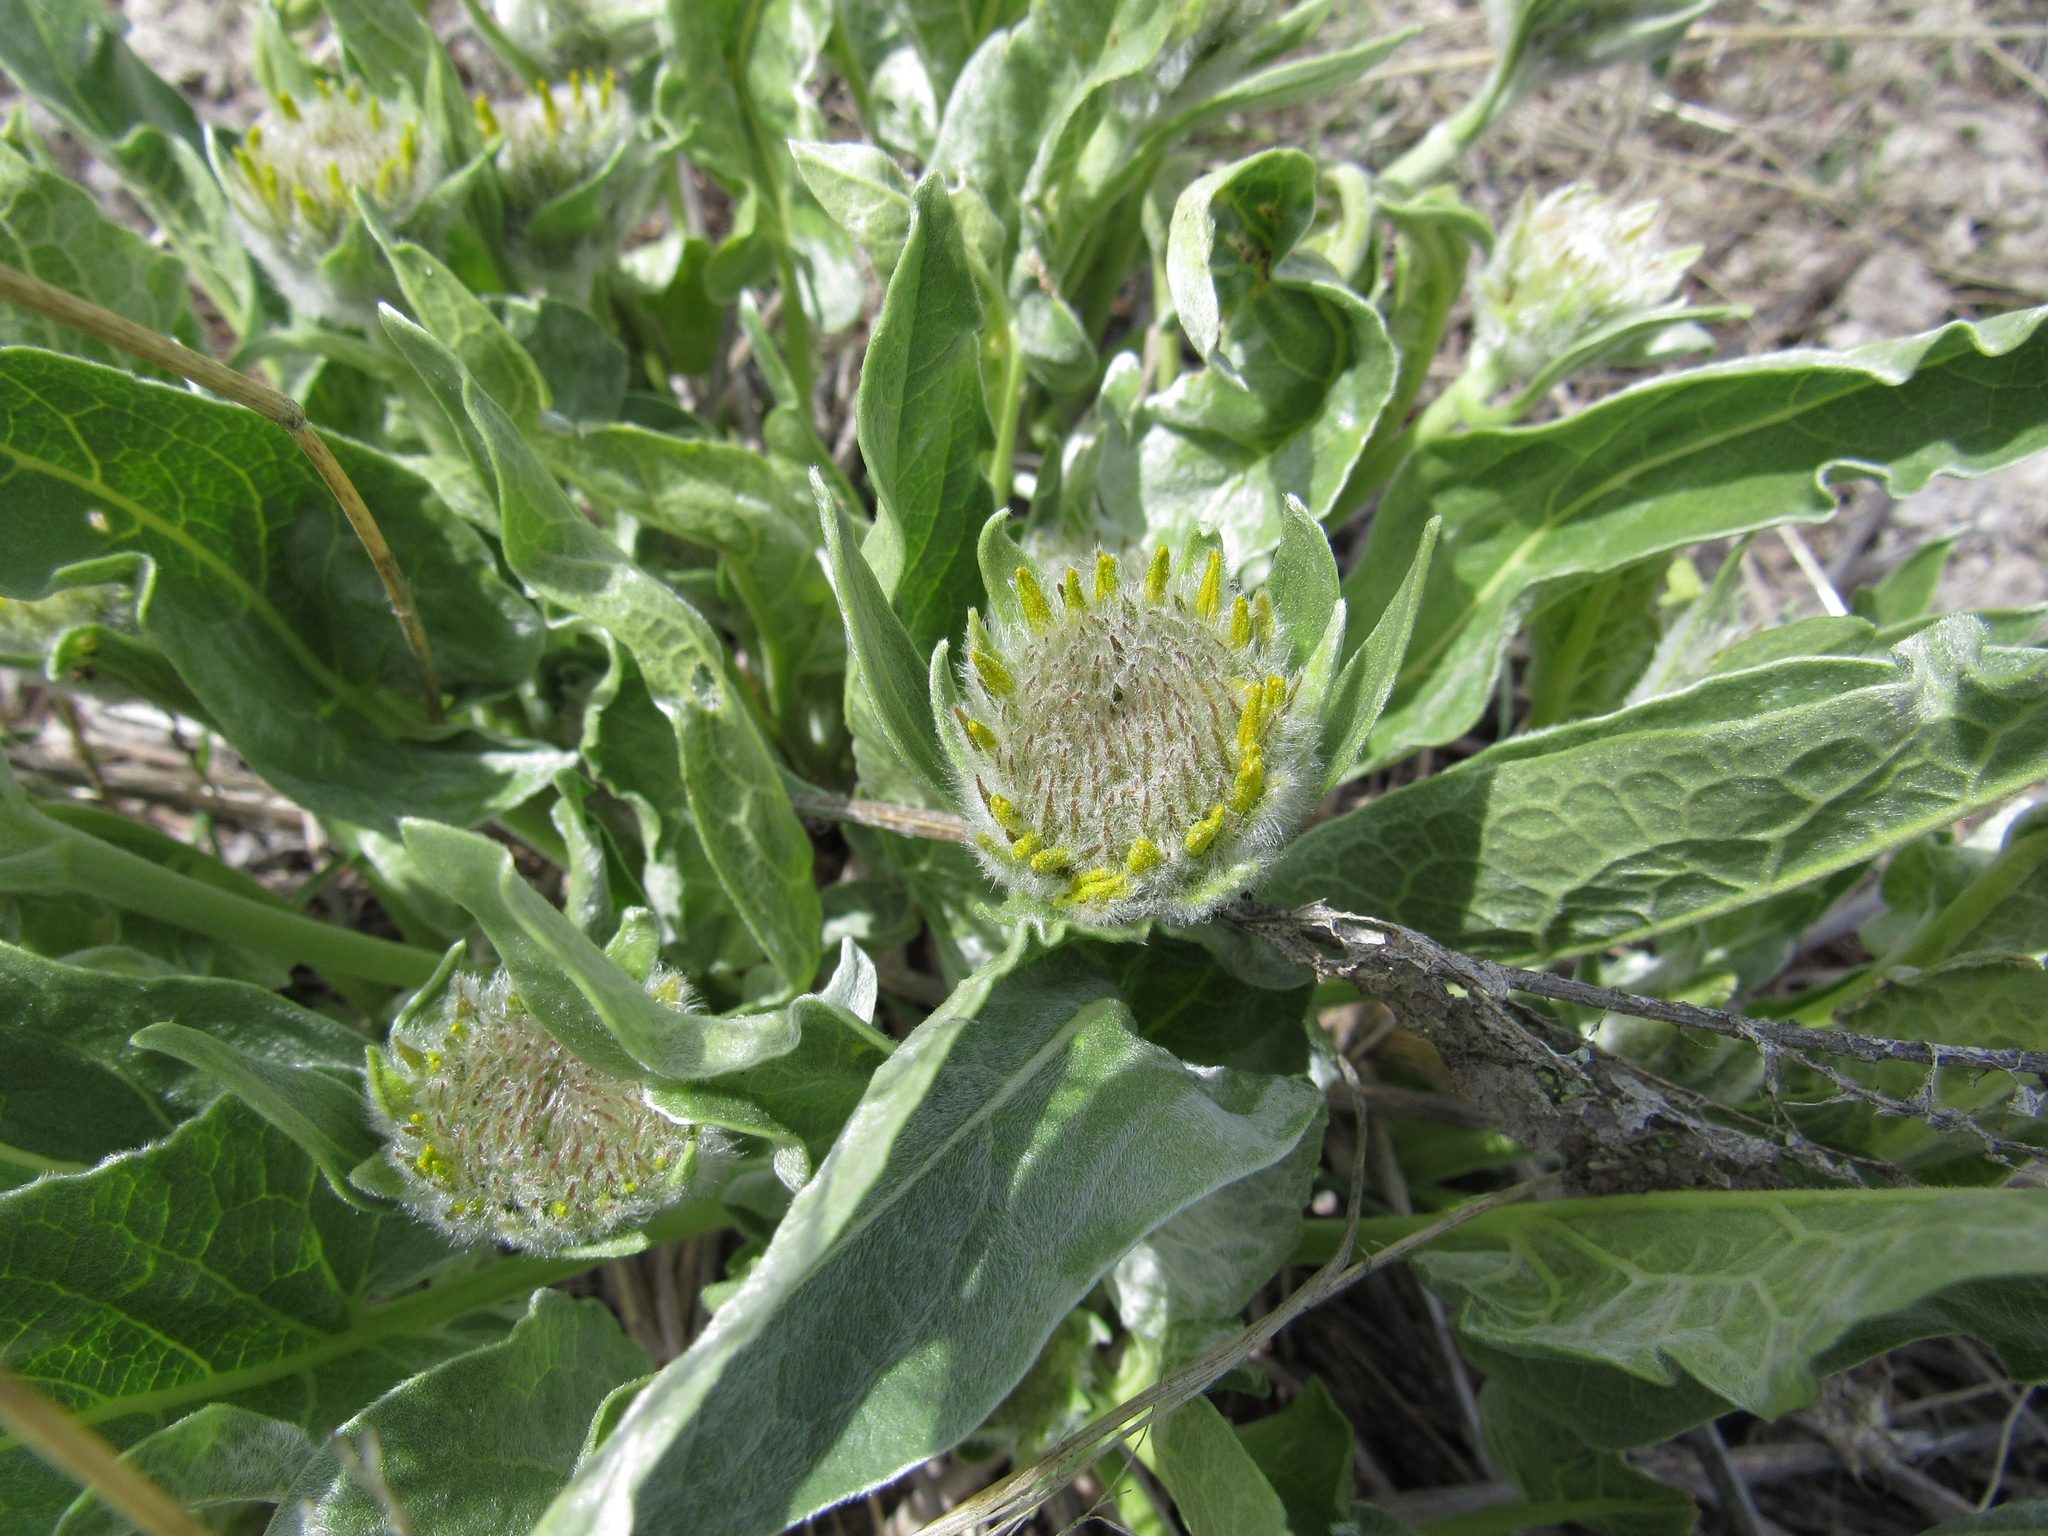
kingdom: Plantae
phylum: Tracheophyta
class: Magnoliopsida
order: Asterales
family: Asteraceae
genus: Wyethia
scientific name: Wyethia sagittata
